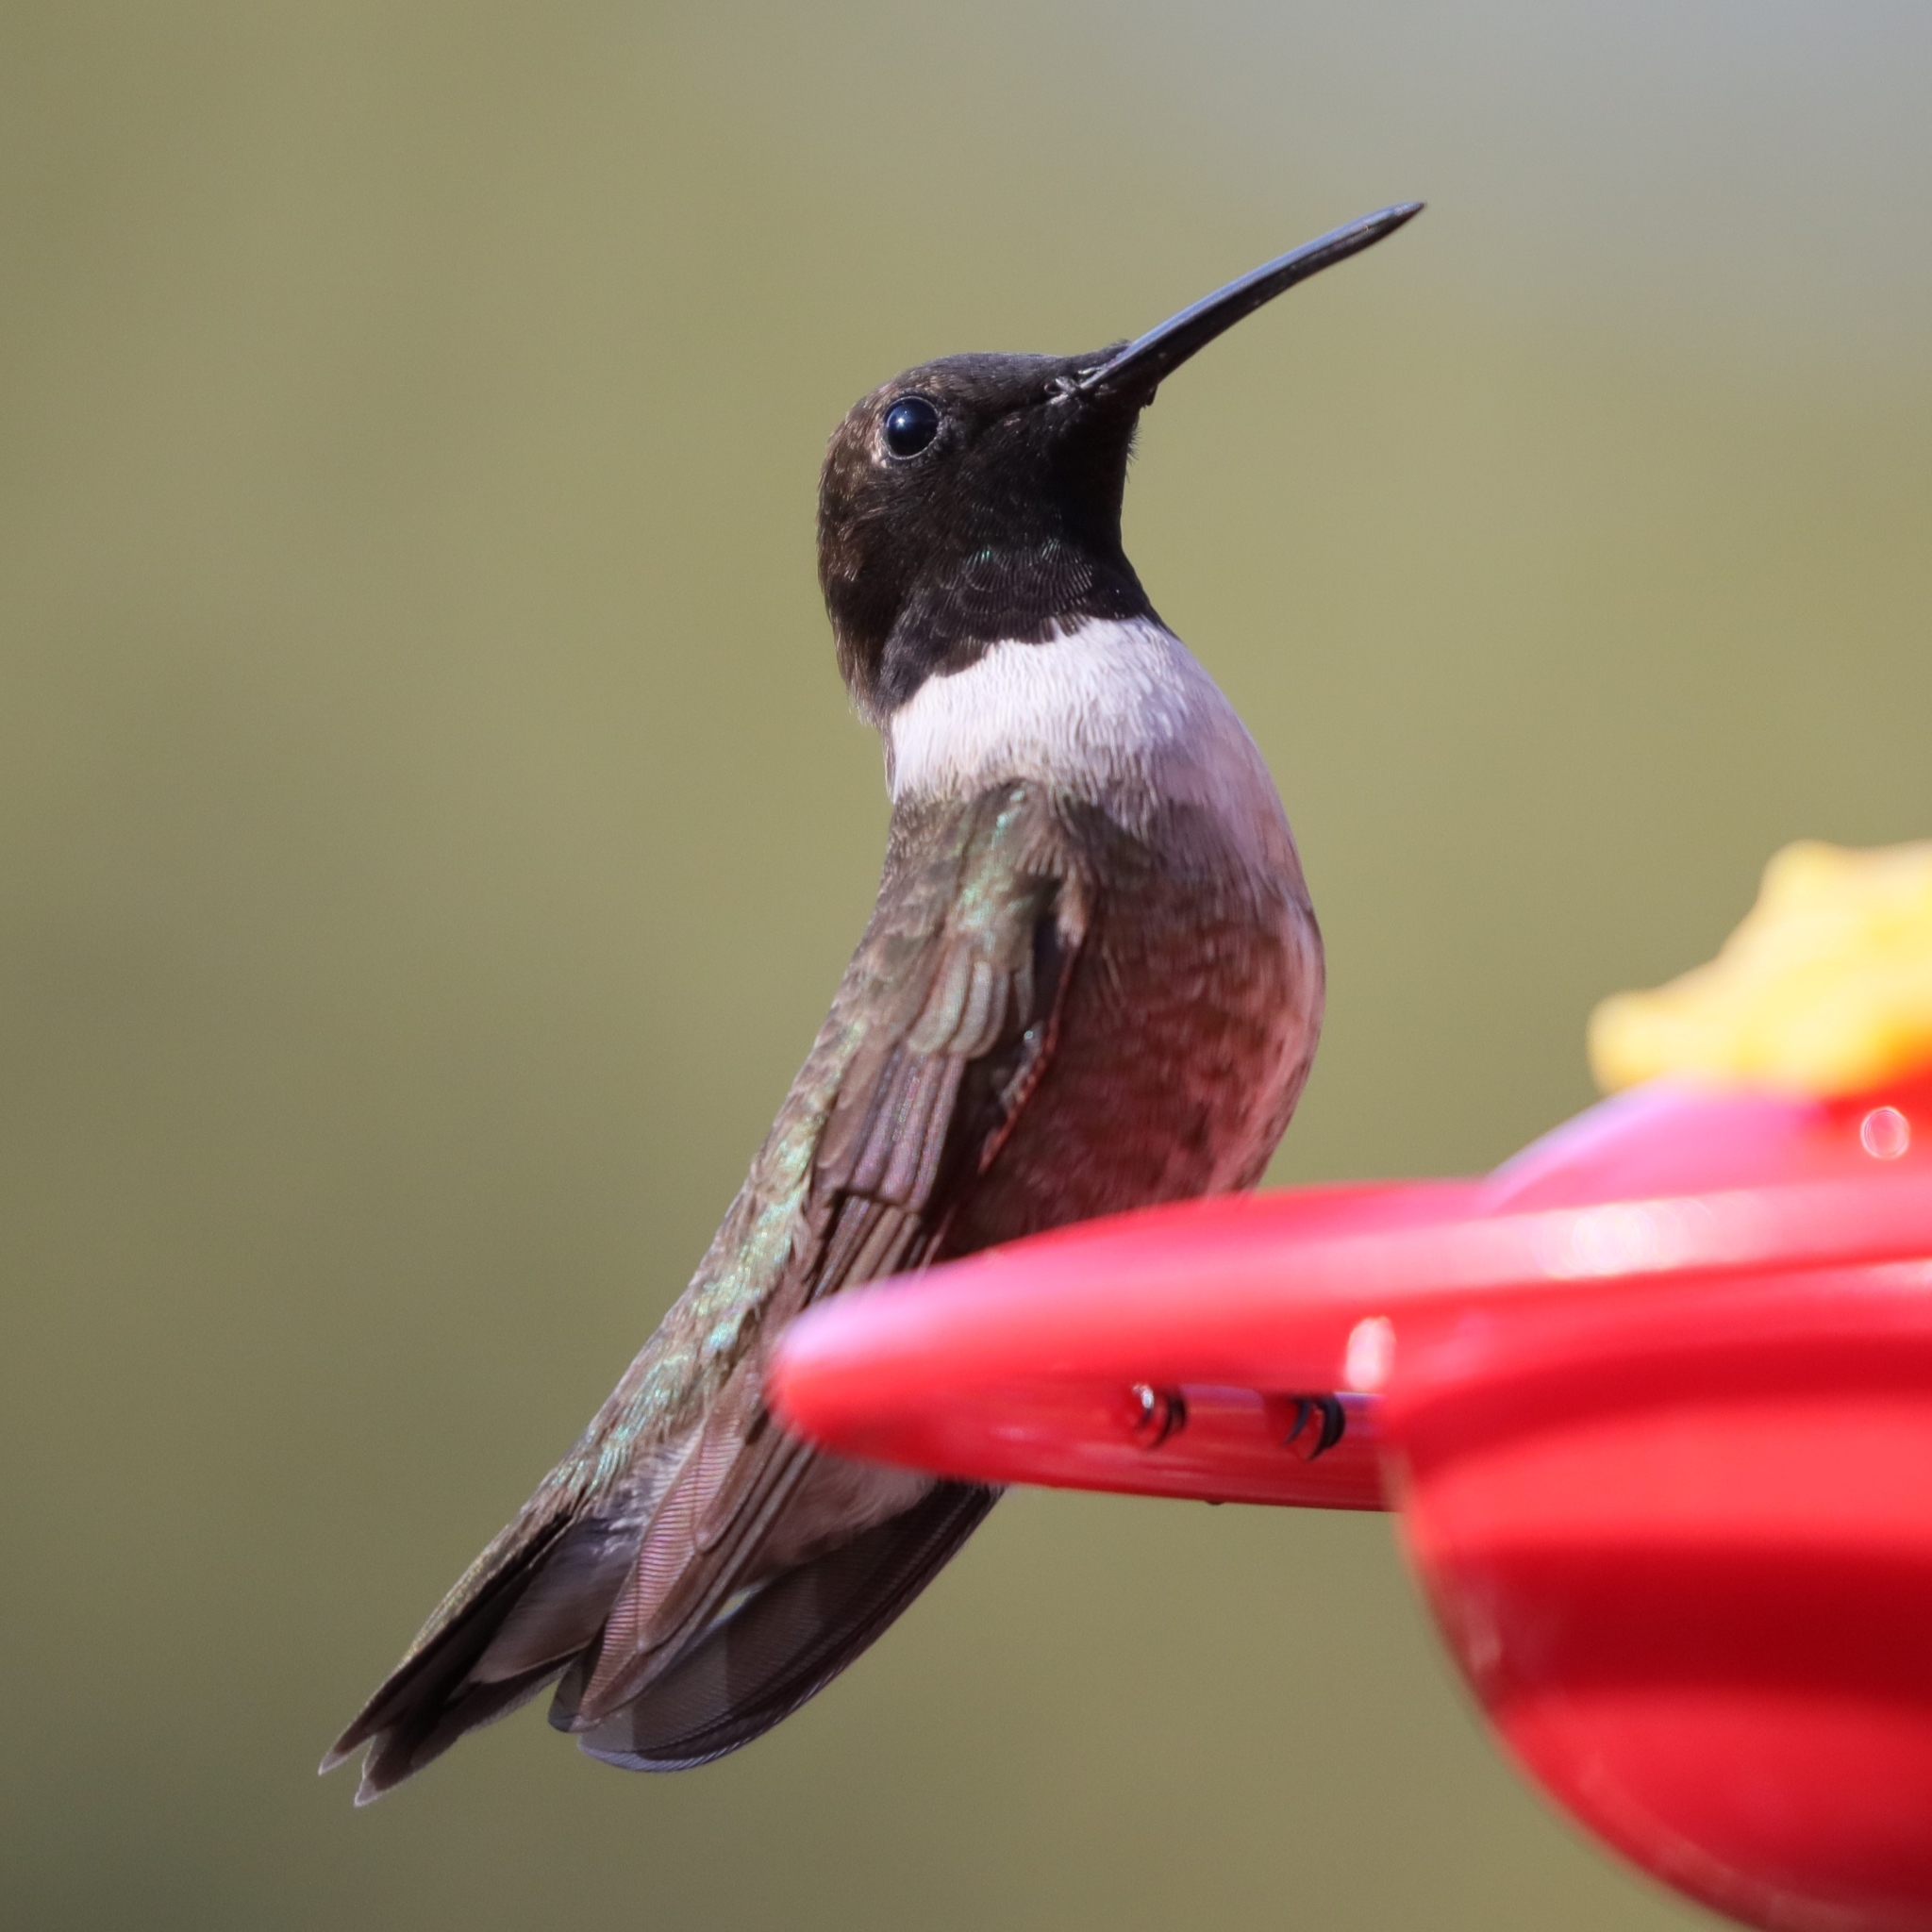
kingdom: Animalia
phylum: Chordata
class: Aves
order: Apodiformes
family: Trochilidae
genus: Archilochus
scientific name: Archilochus alexandri
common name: Black-chinned hummingbird
